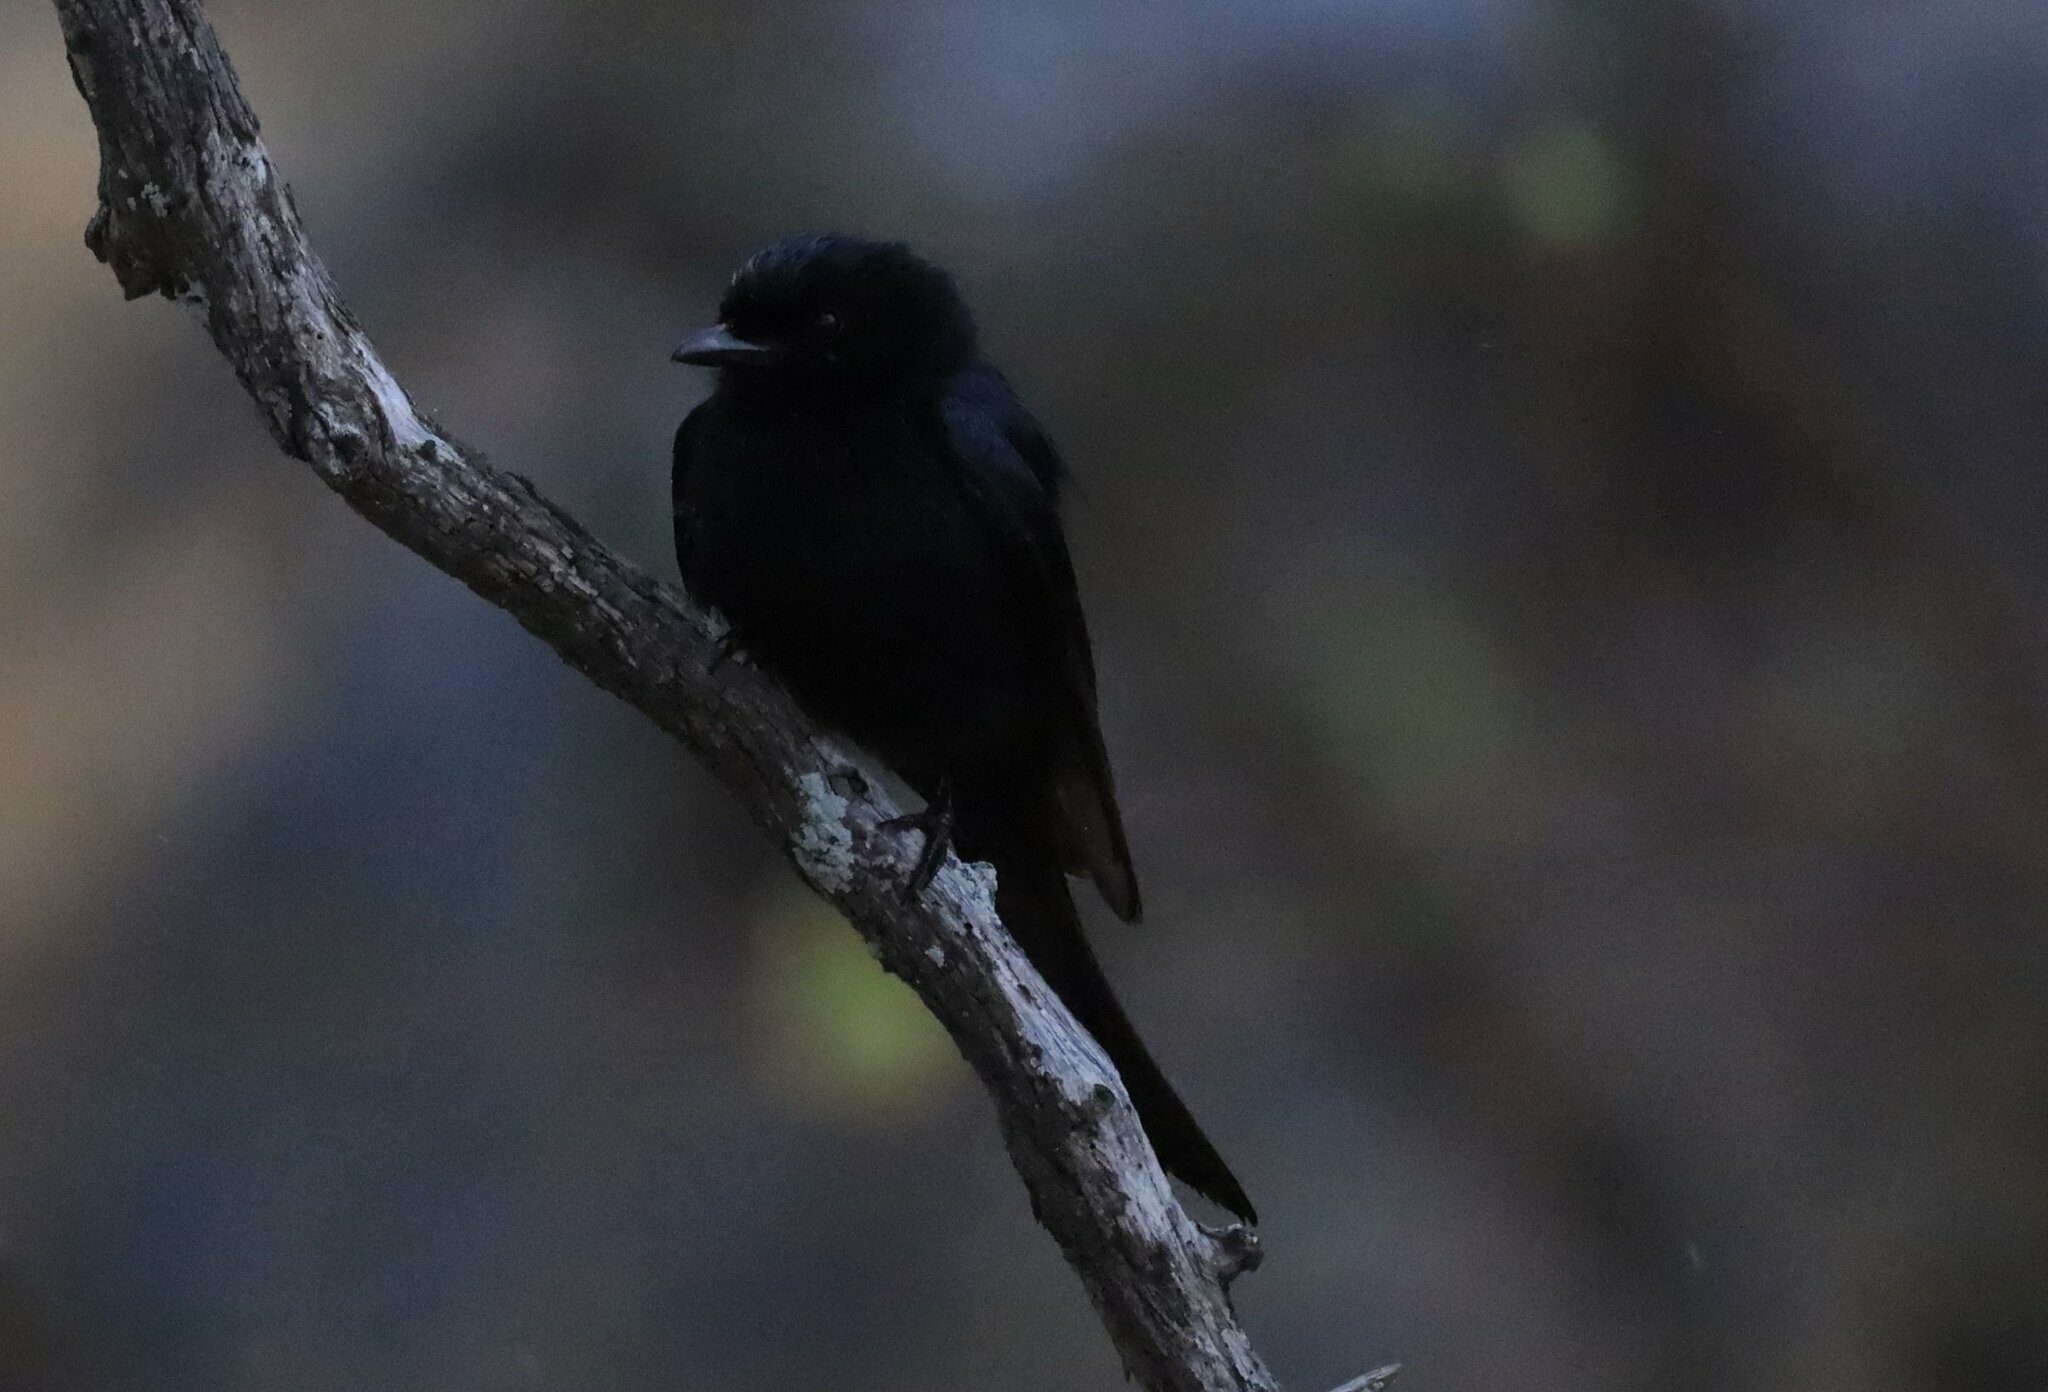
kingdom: Animalia
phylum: Chordata
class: Aves
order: Passeriformes
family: Dicruridae
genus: Dicrurus
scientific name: Dicrurus adsimilis
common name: Fork-tailed drongo
